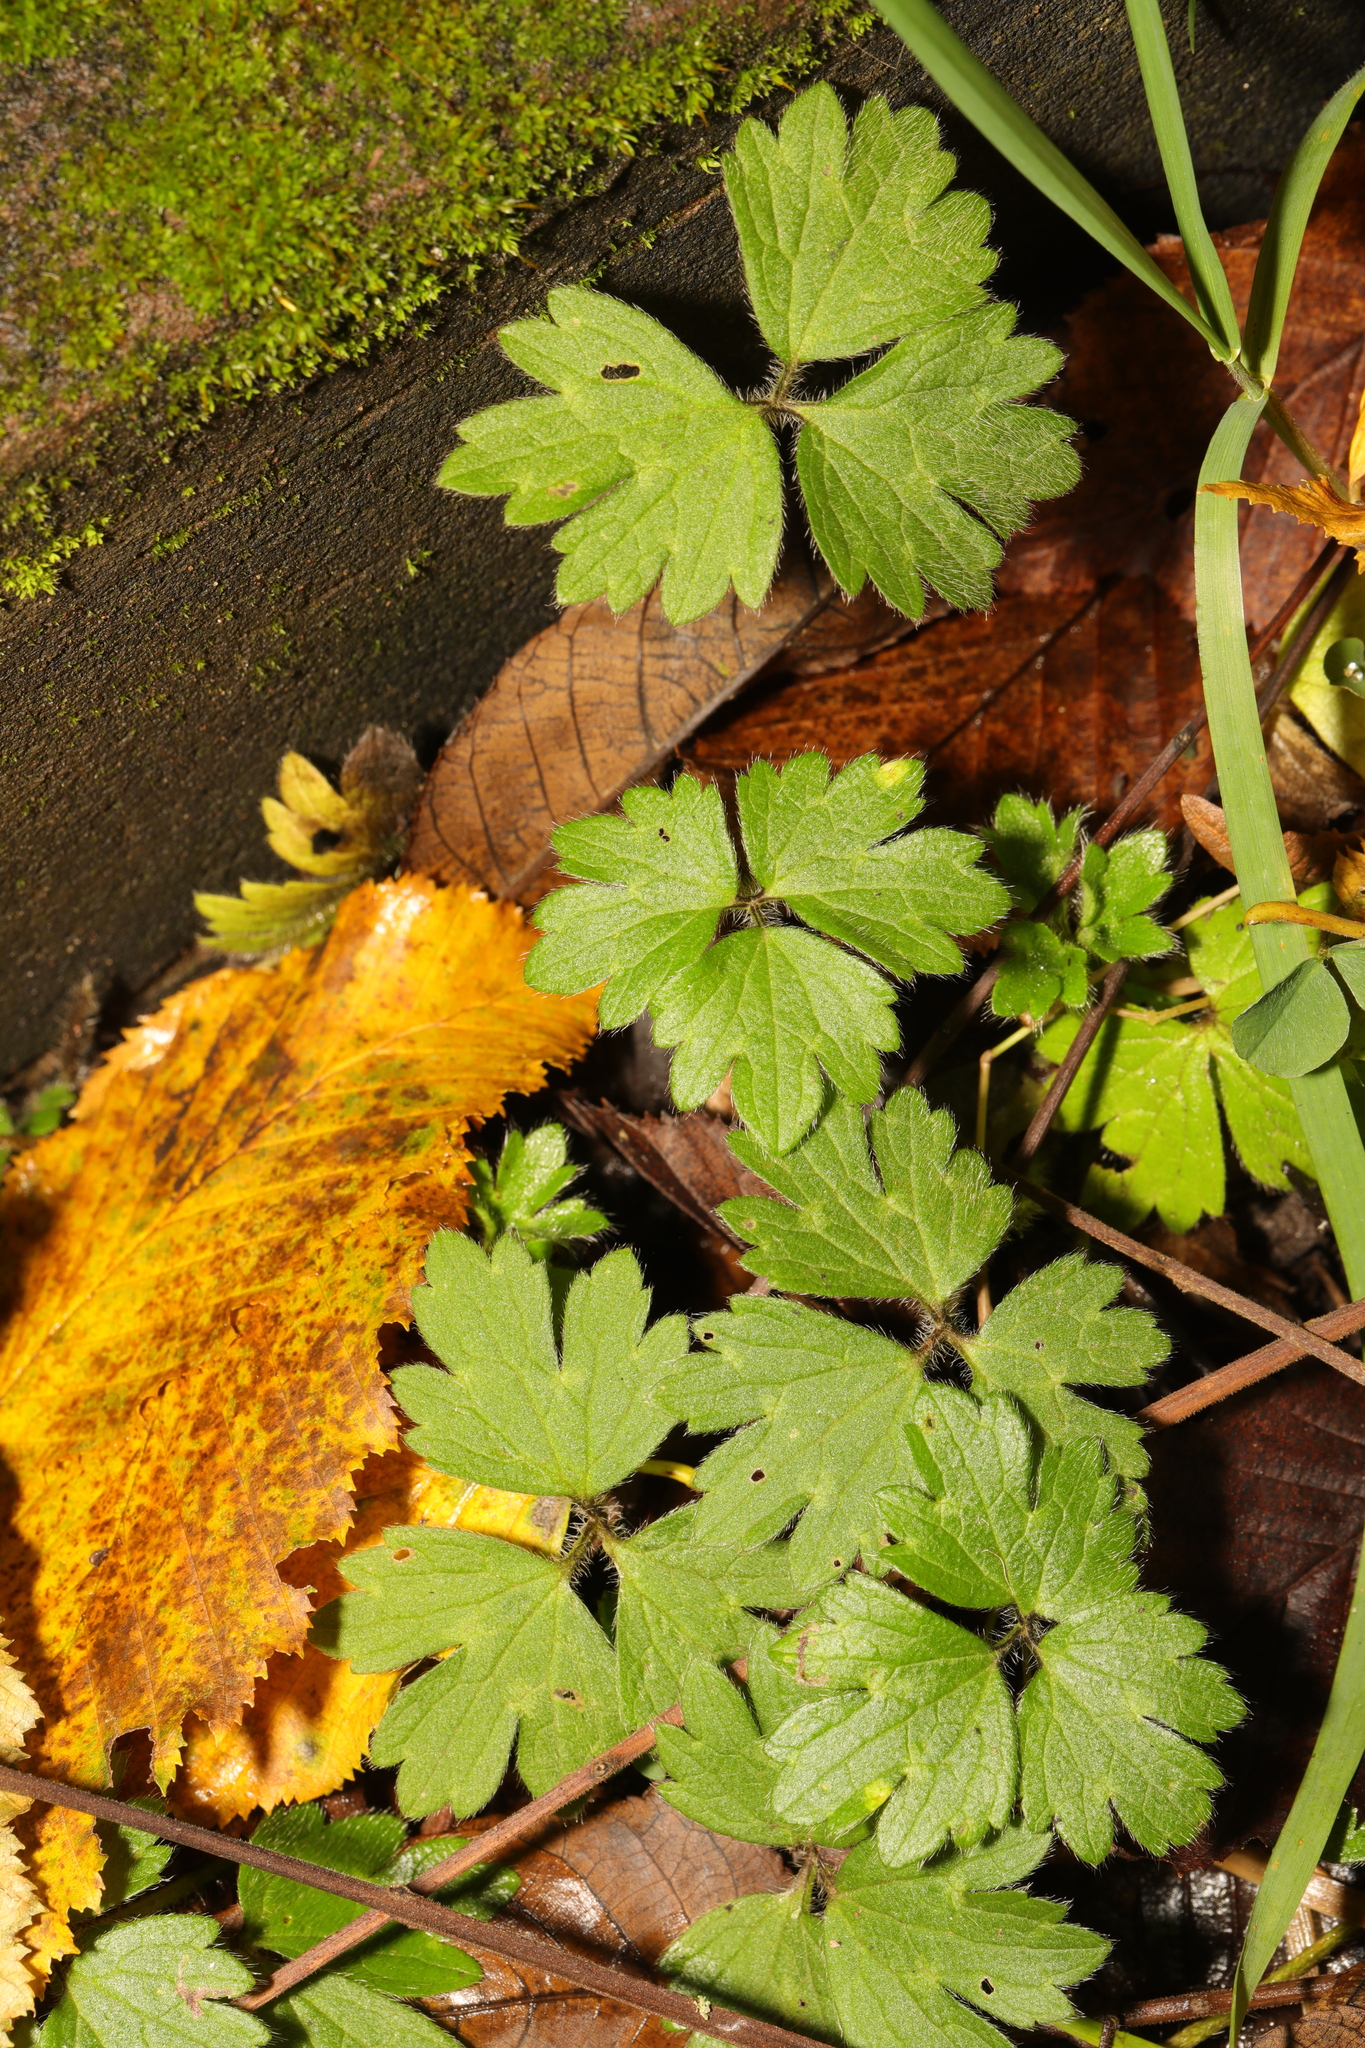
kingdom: Plantae
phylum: Tracheophyta
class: Magnoliopsida
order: Ranunculales
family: Ranunculaceae
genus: Ranunculus
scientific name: Ranunculus repens
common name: Creeping buttercup
